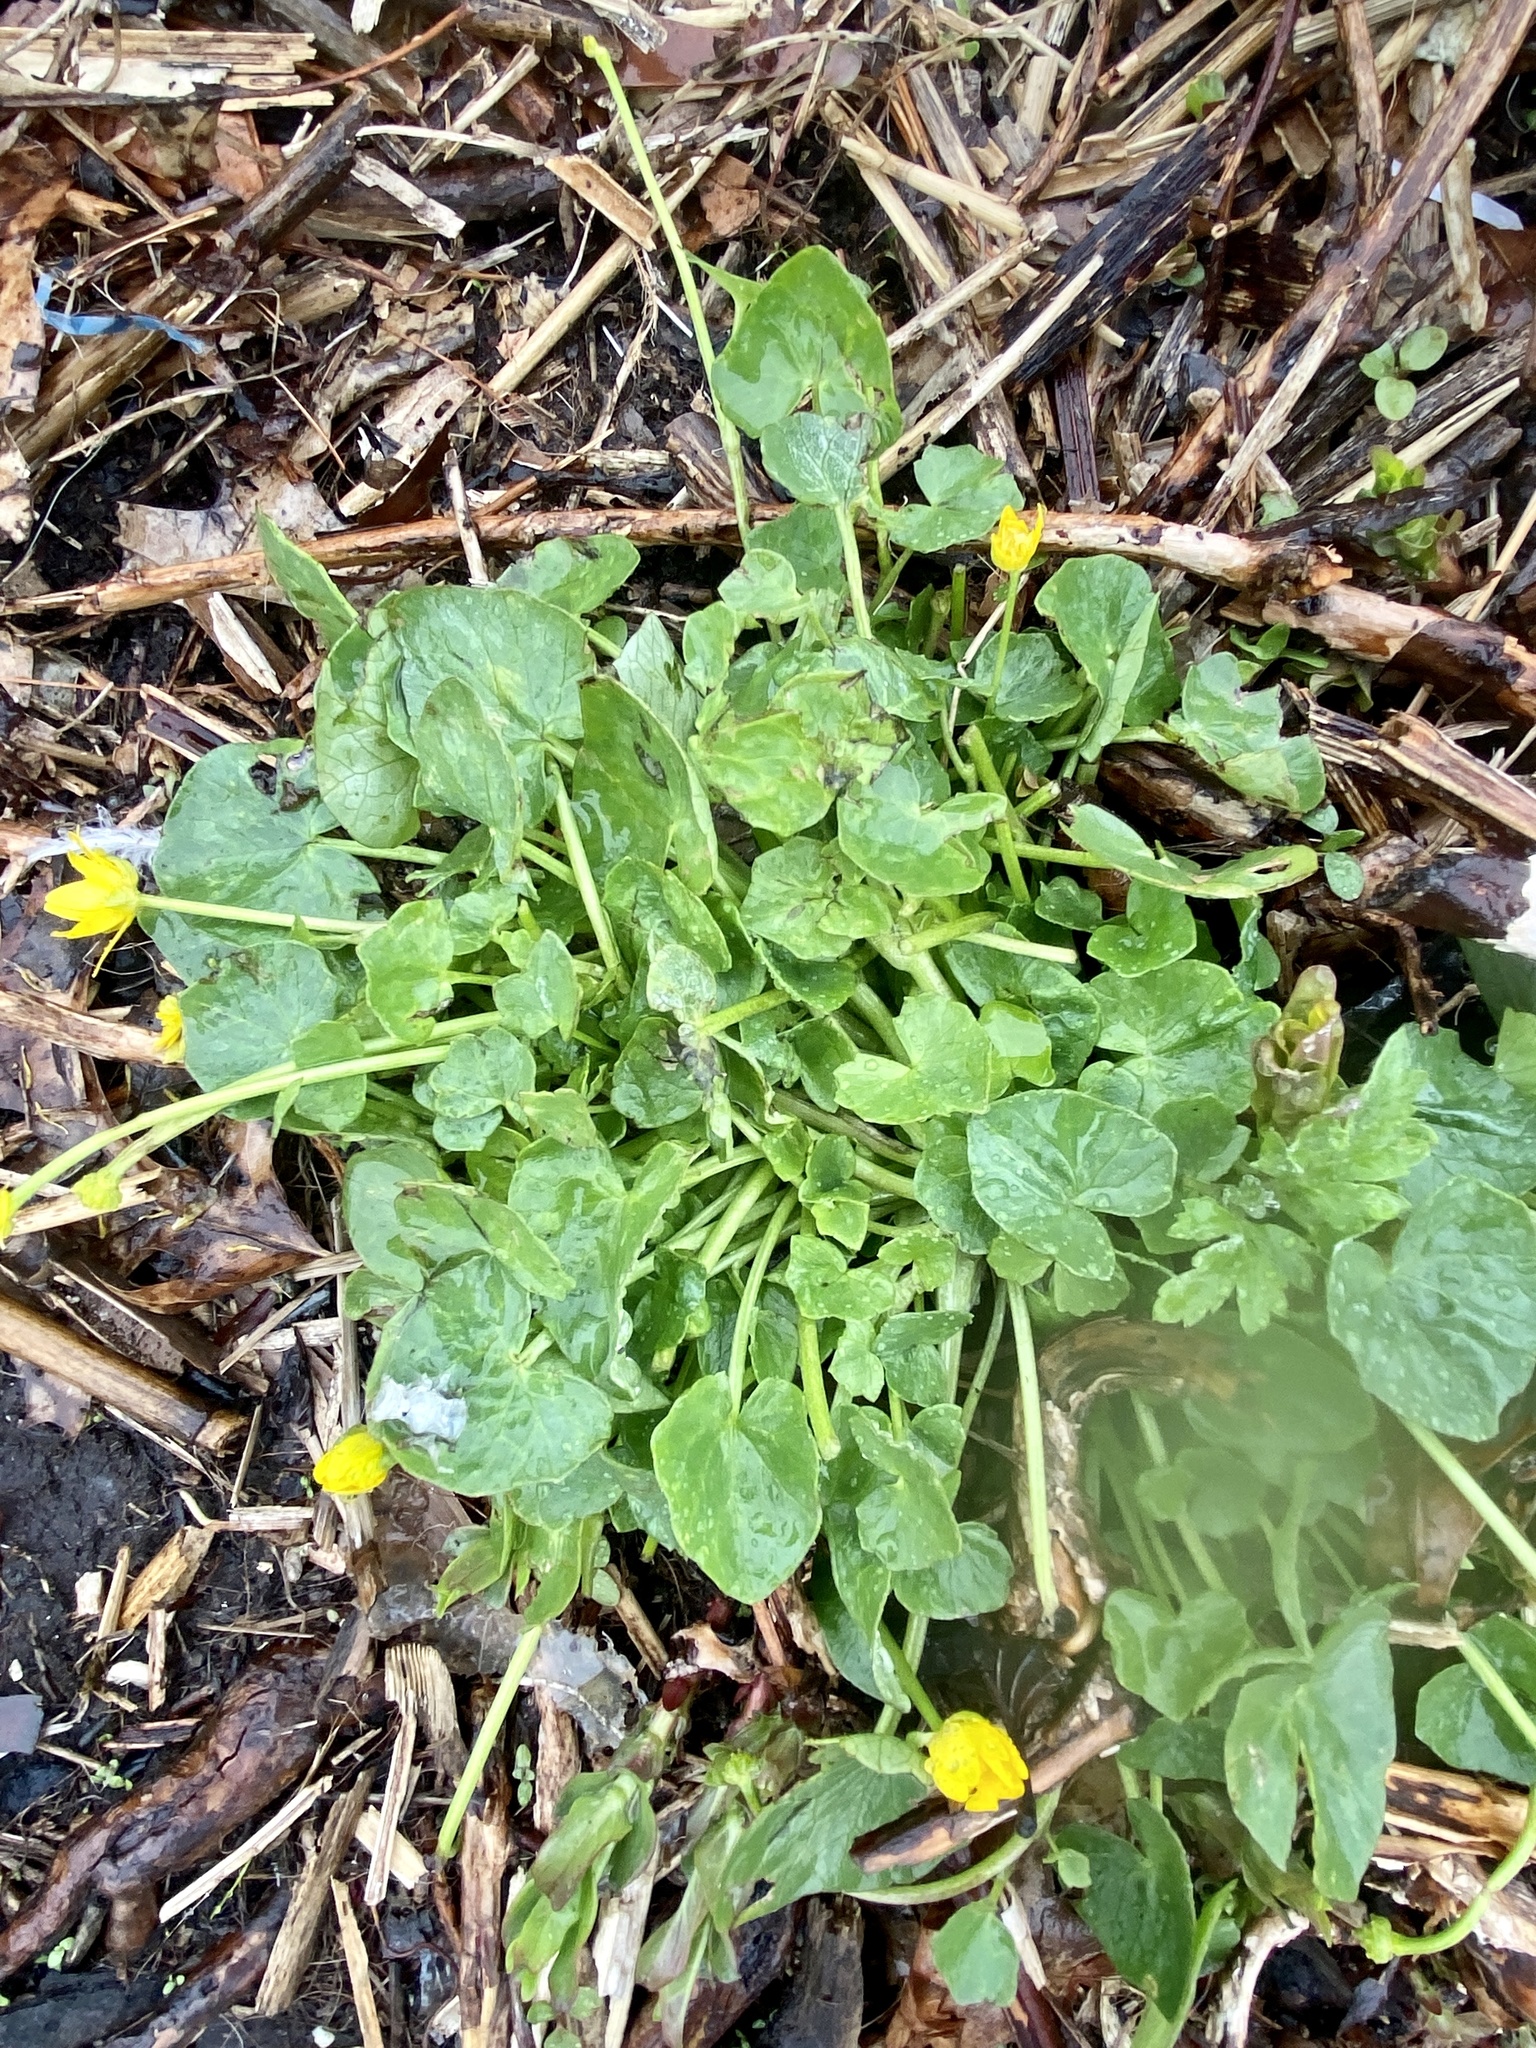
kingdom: Plantae
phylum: Tracheophyta
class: Magnoliopsida
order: Ranunculales
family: Ranunculaceae
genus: Ficaria
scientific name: Ficaria verna
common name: Lesser celandine
